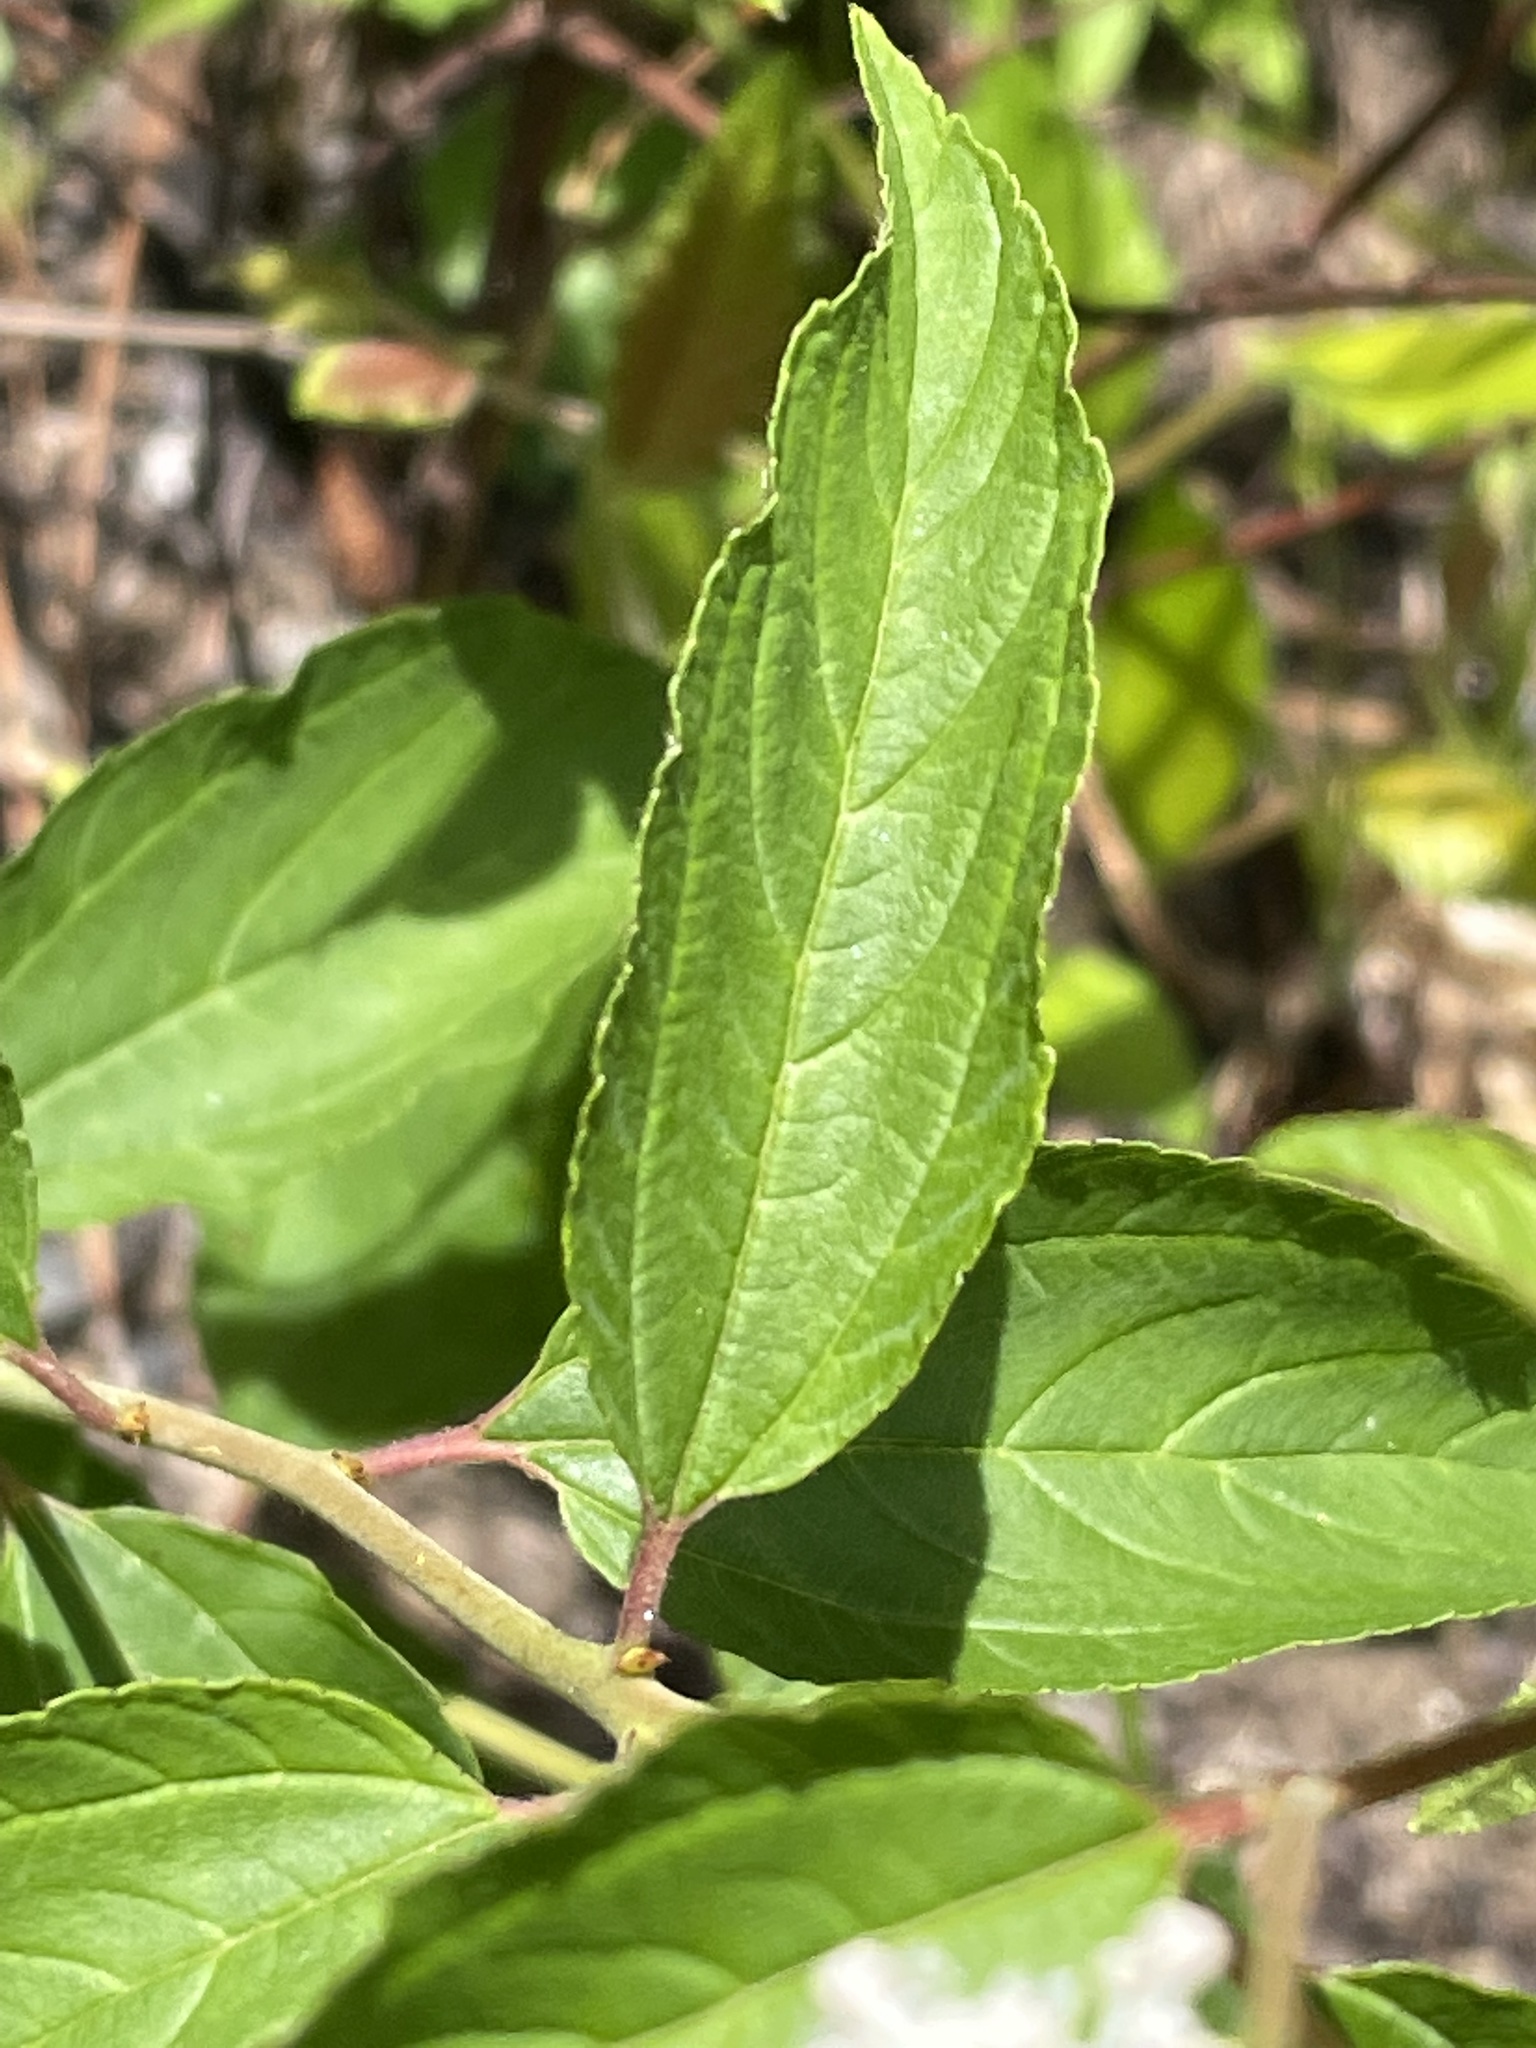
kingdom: Plantae
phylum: Tracheophyta
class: Magnoliopsida
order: Rosales
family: Rhamnaceae
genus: Ceanothus
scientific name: Ceanothus americanus
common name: Redroot
